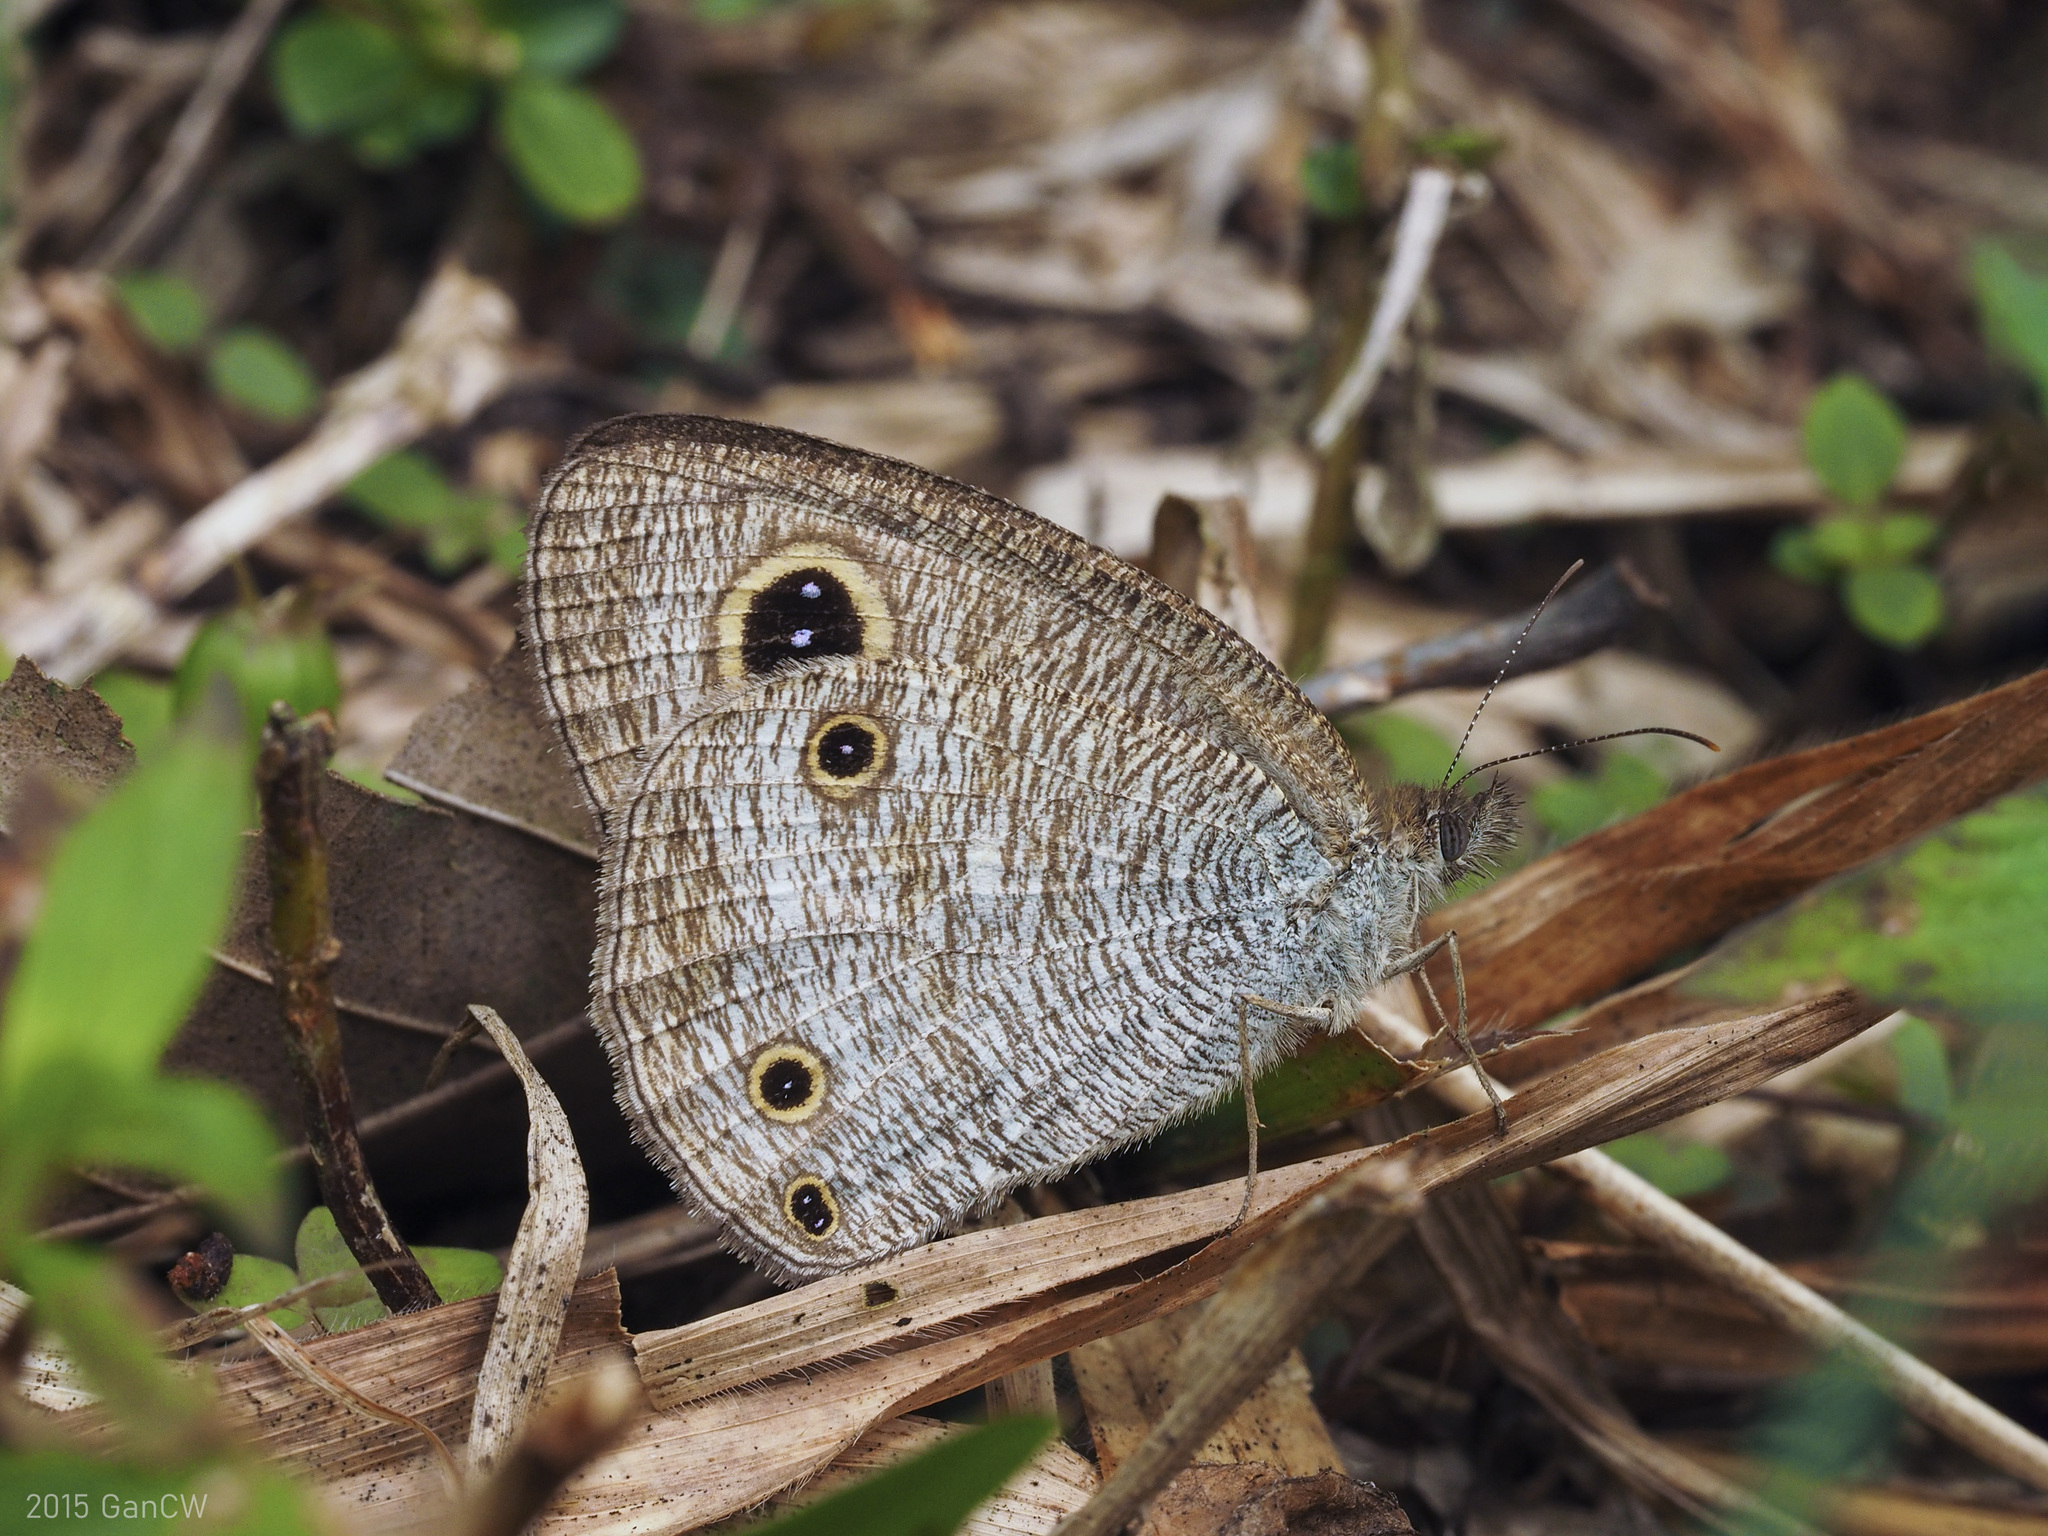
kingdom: Animalia
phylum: Arthropoda
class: Insecta
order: Lepidoptera
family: Nymphalidae
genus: Ypthima
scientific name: Ypthima pandocus
